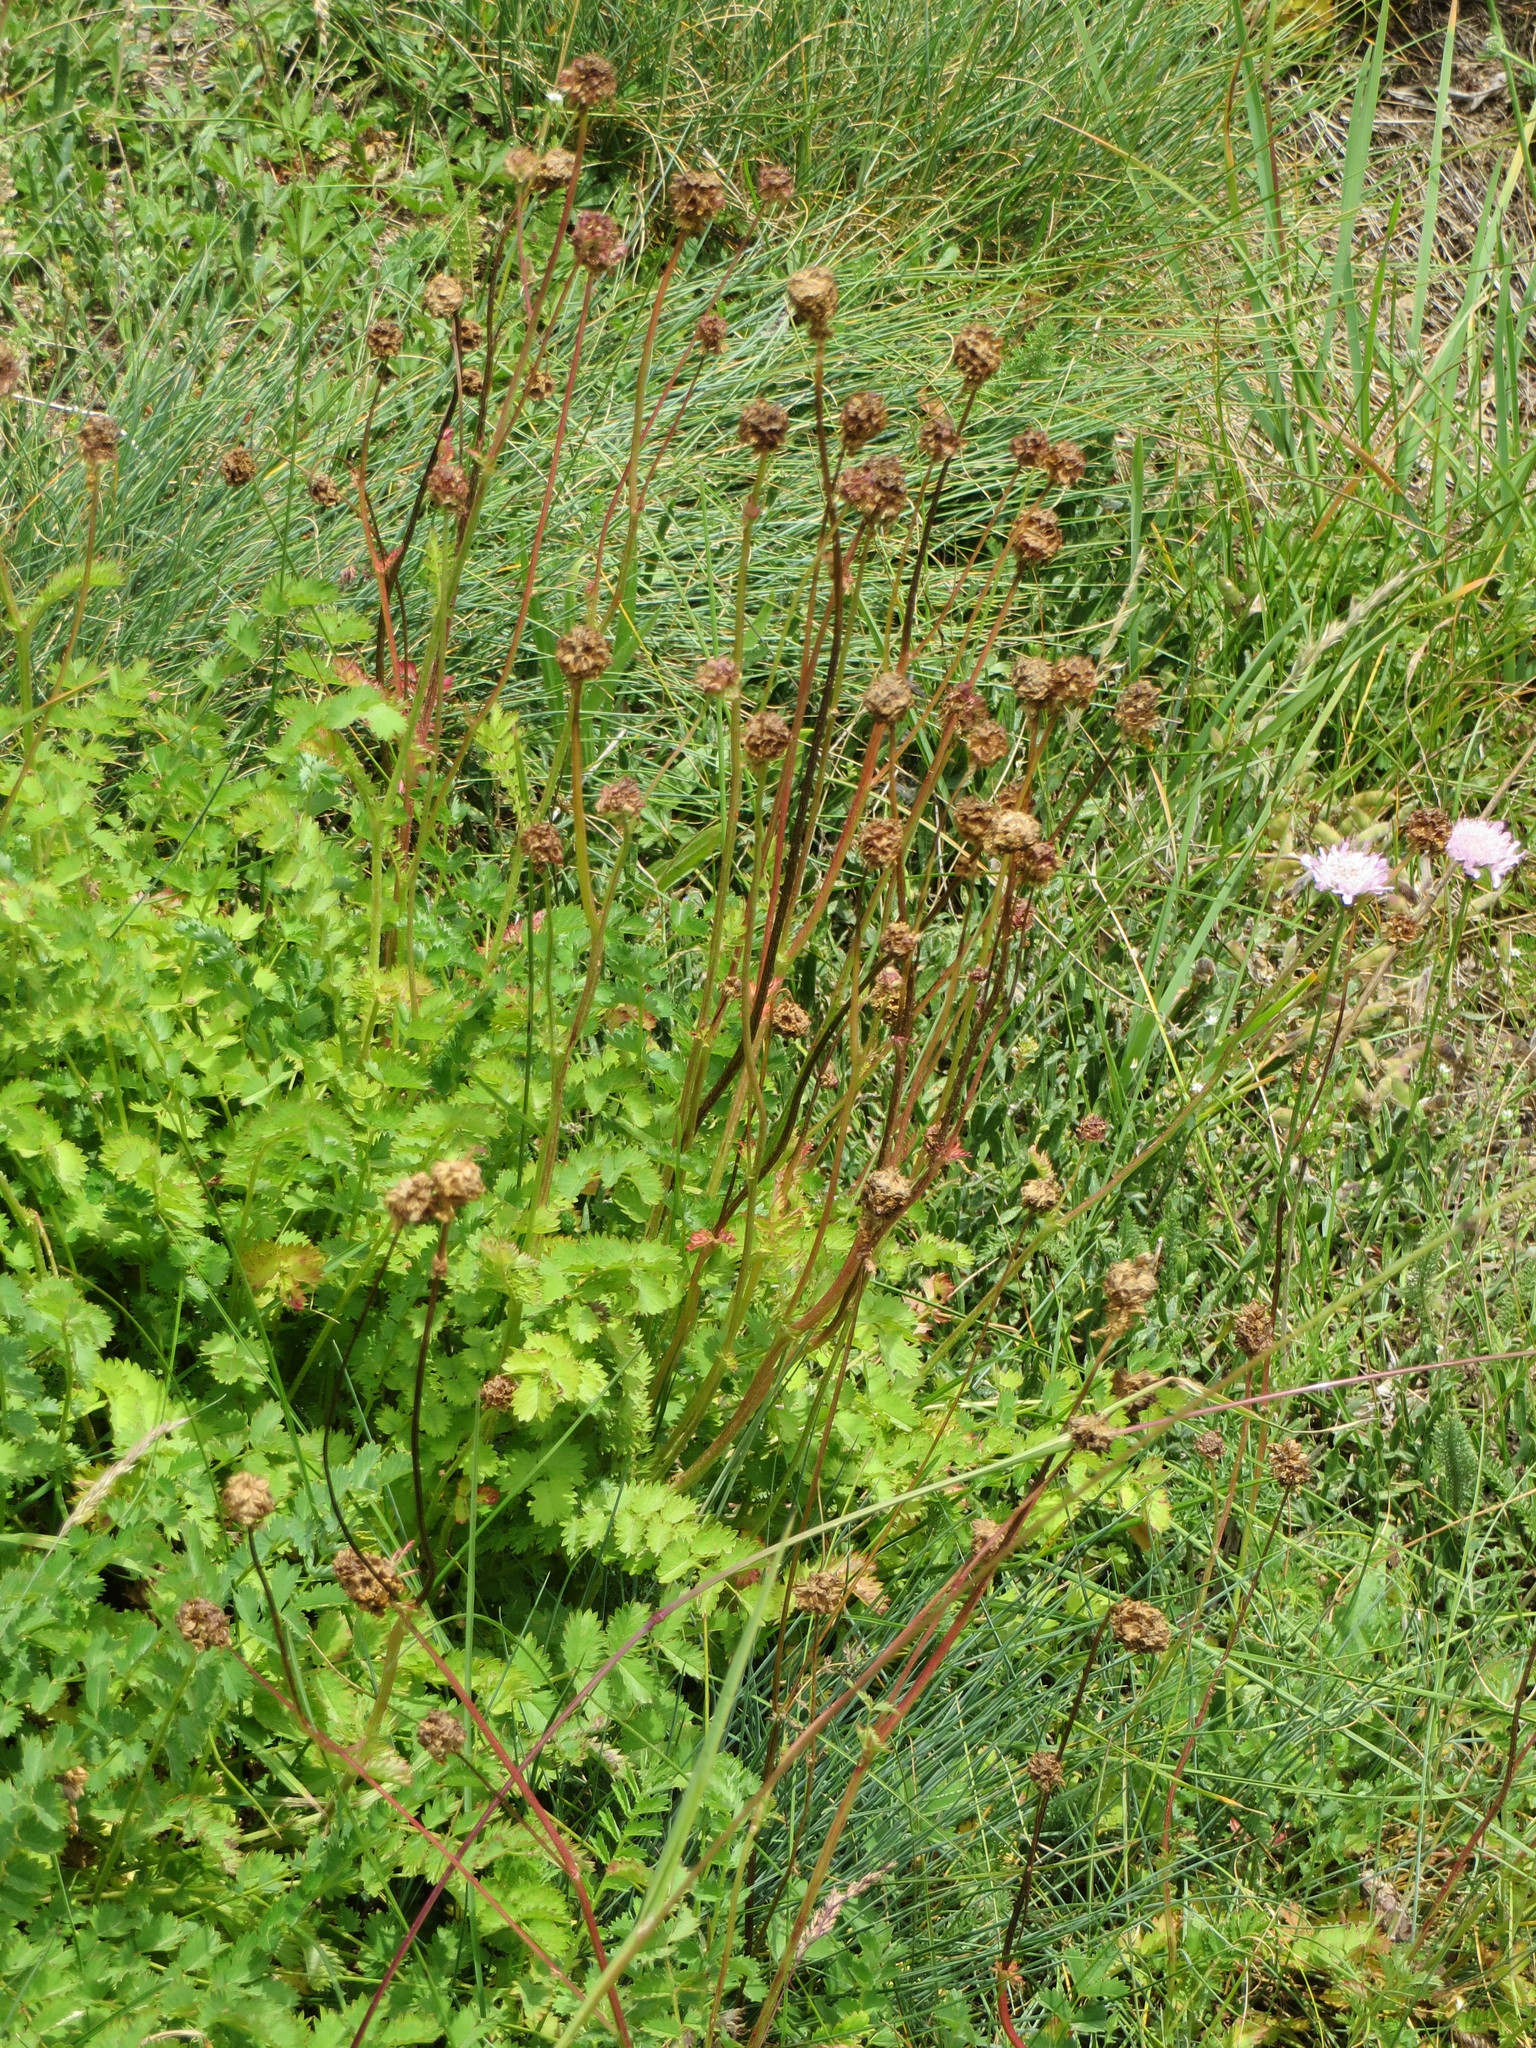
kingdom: Plantae
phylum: Tracheophyta
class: Magnoliopsida
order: Rosales
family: Rosaceae
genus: Poterium
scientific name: Poterium sanguisorba
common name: Salad burnet
